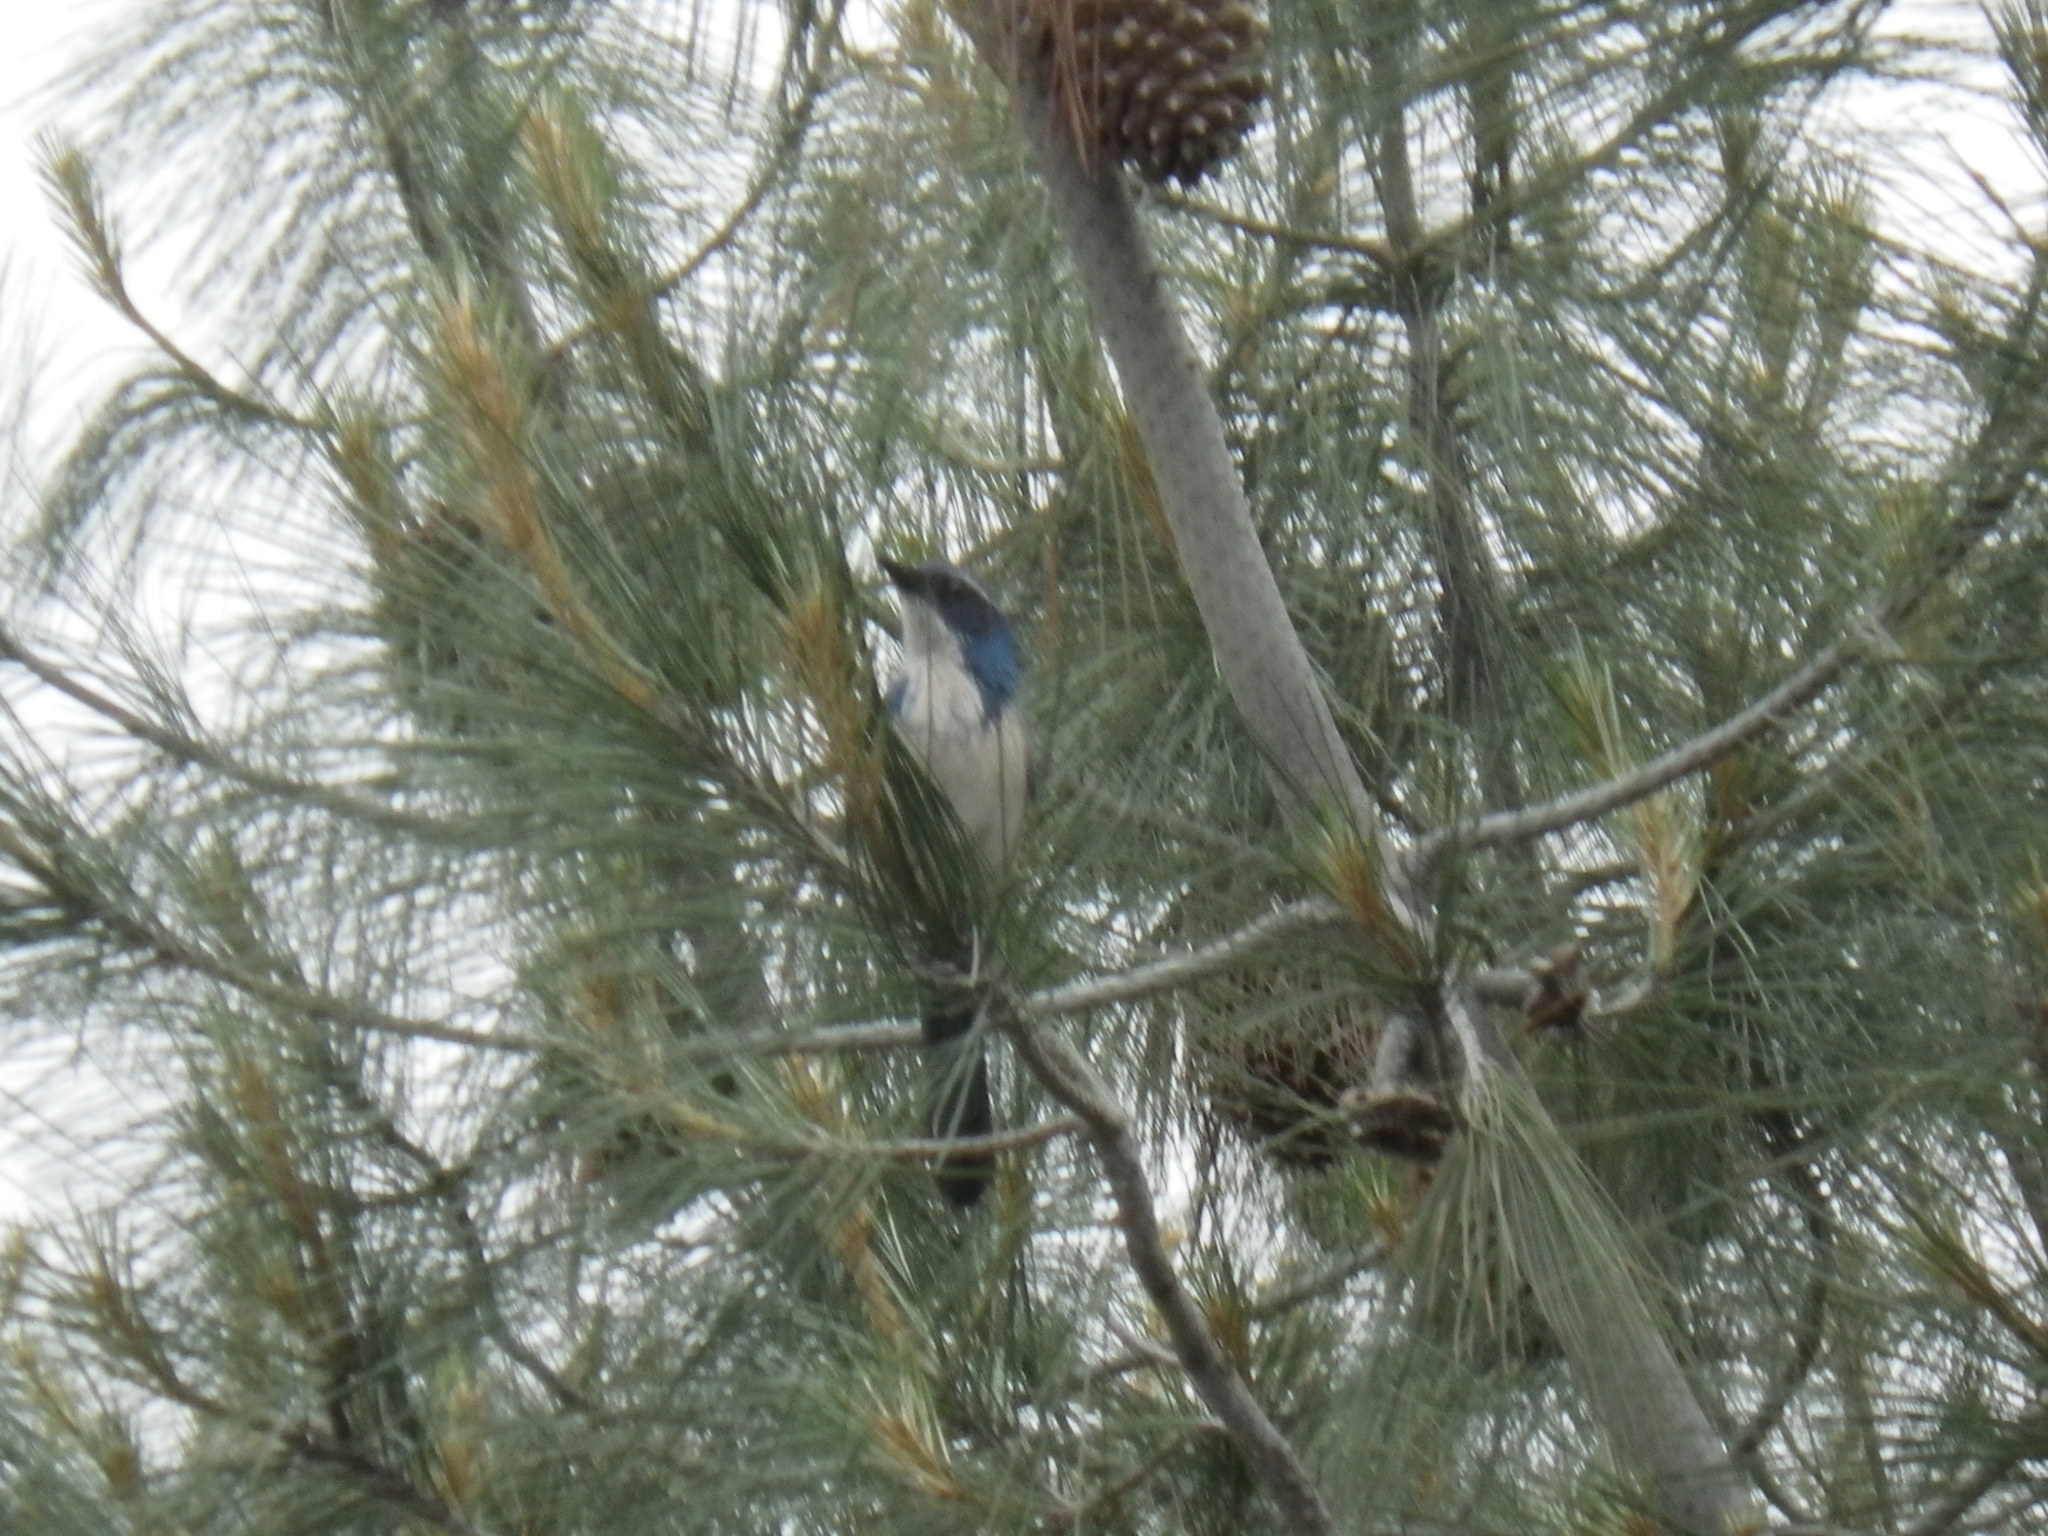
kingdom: Animalia
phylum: Chordata
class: Aves
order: Passeriformes
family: Corvidae
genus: Aphelocoma
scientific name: Aphelocoma californica
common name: California scrub-jay
